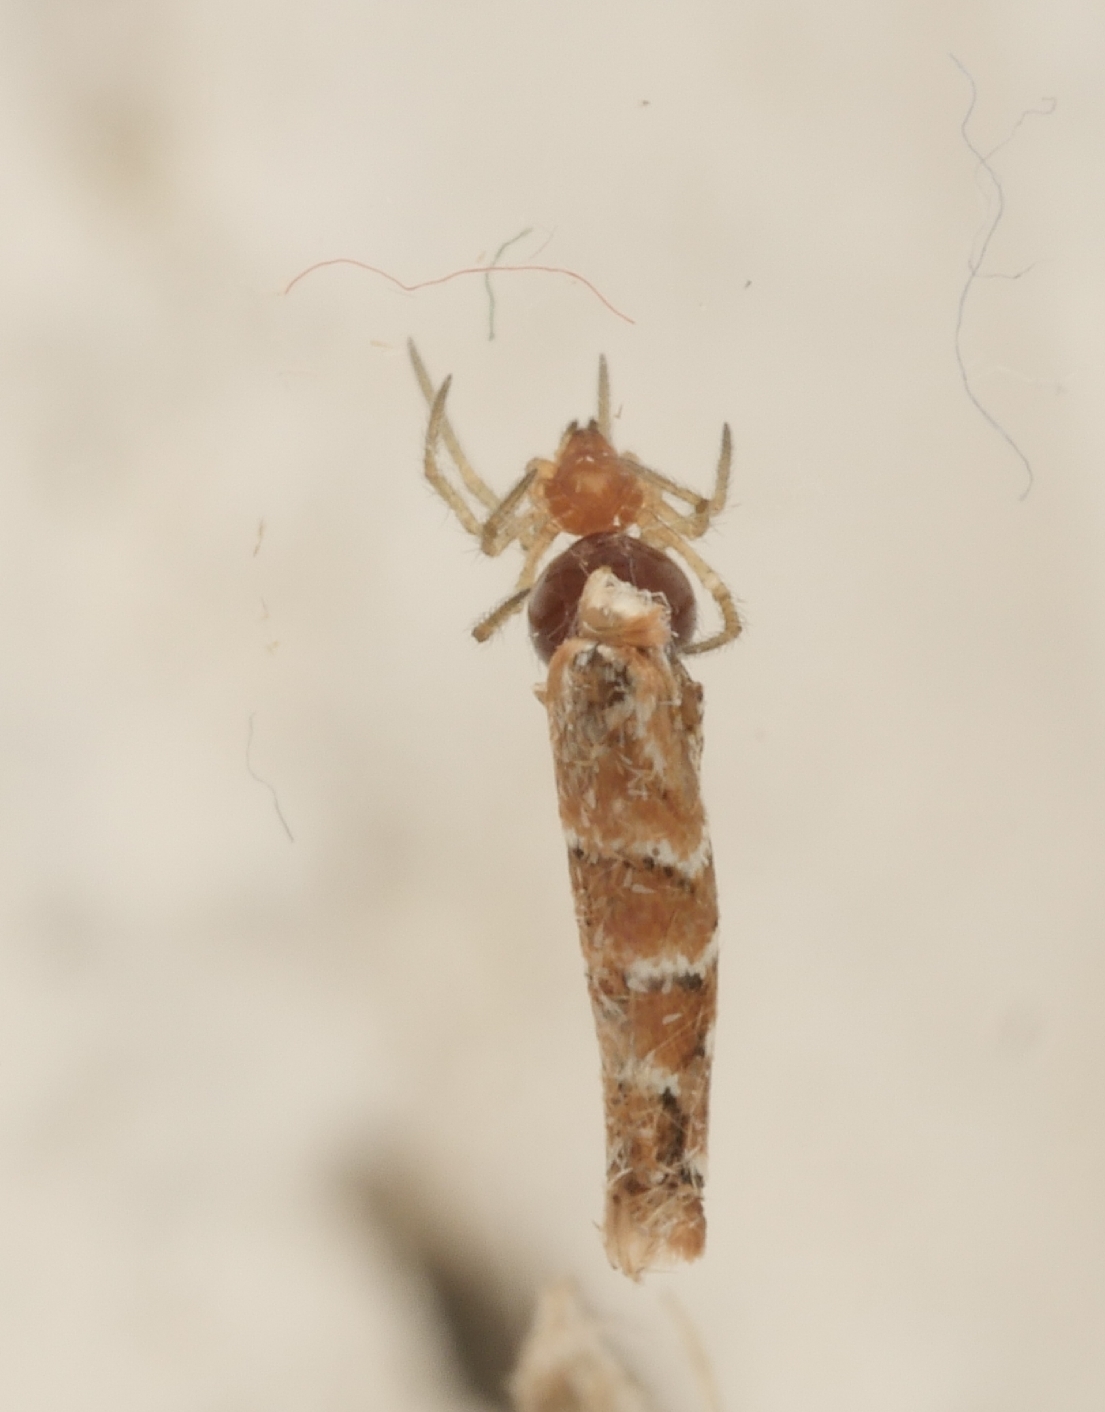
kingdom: Animalia
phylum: Arthropoda
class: Insecta
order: Lepidoptera
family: Gracillariidae
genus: Cameraria
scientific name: Cameraria ohridella
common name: Horse-chestnut leaf-miner
